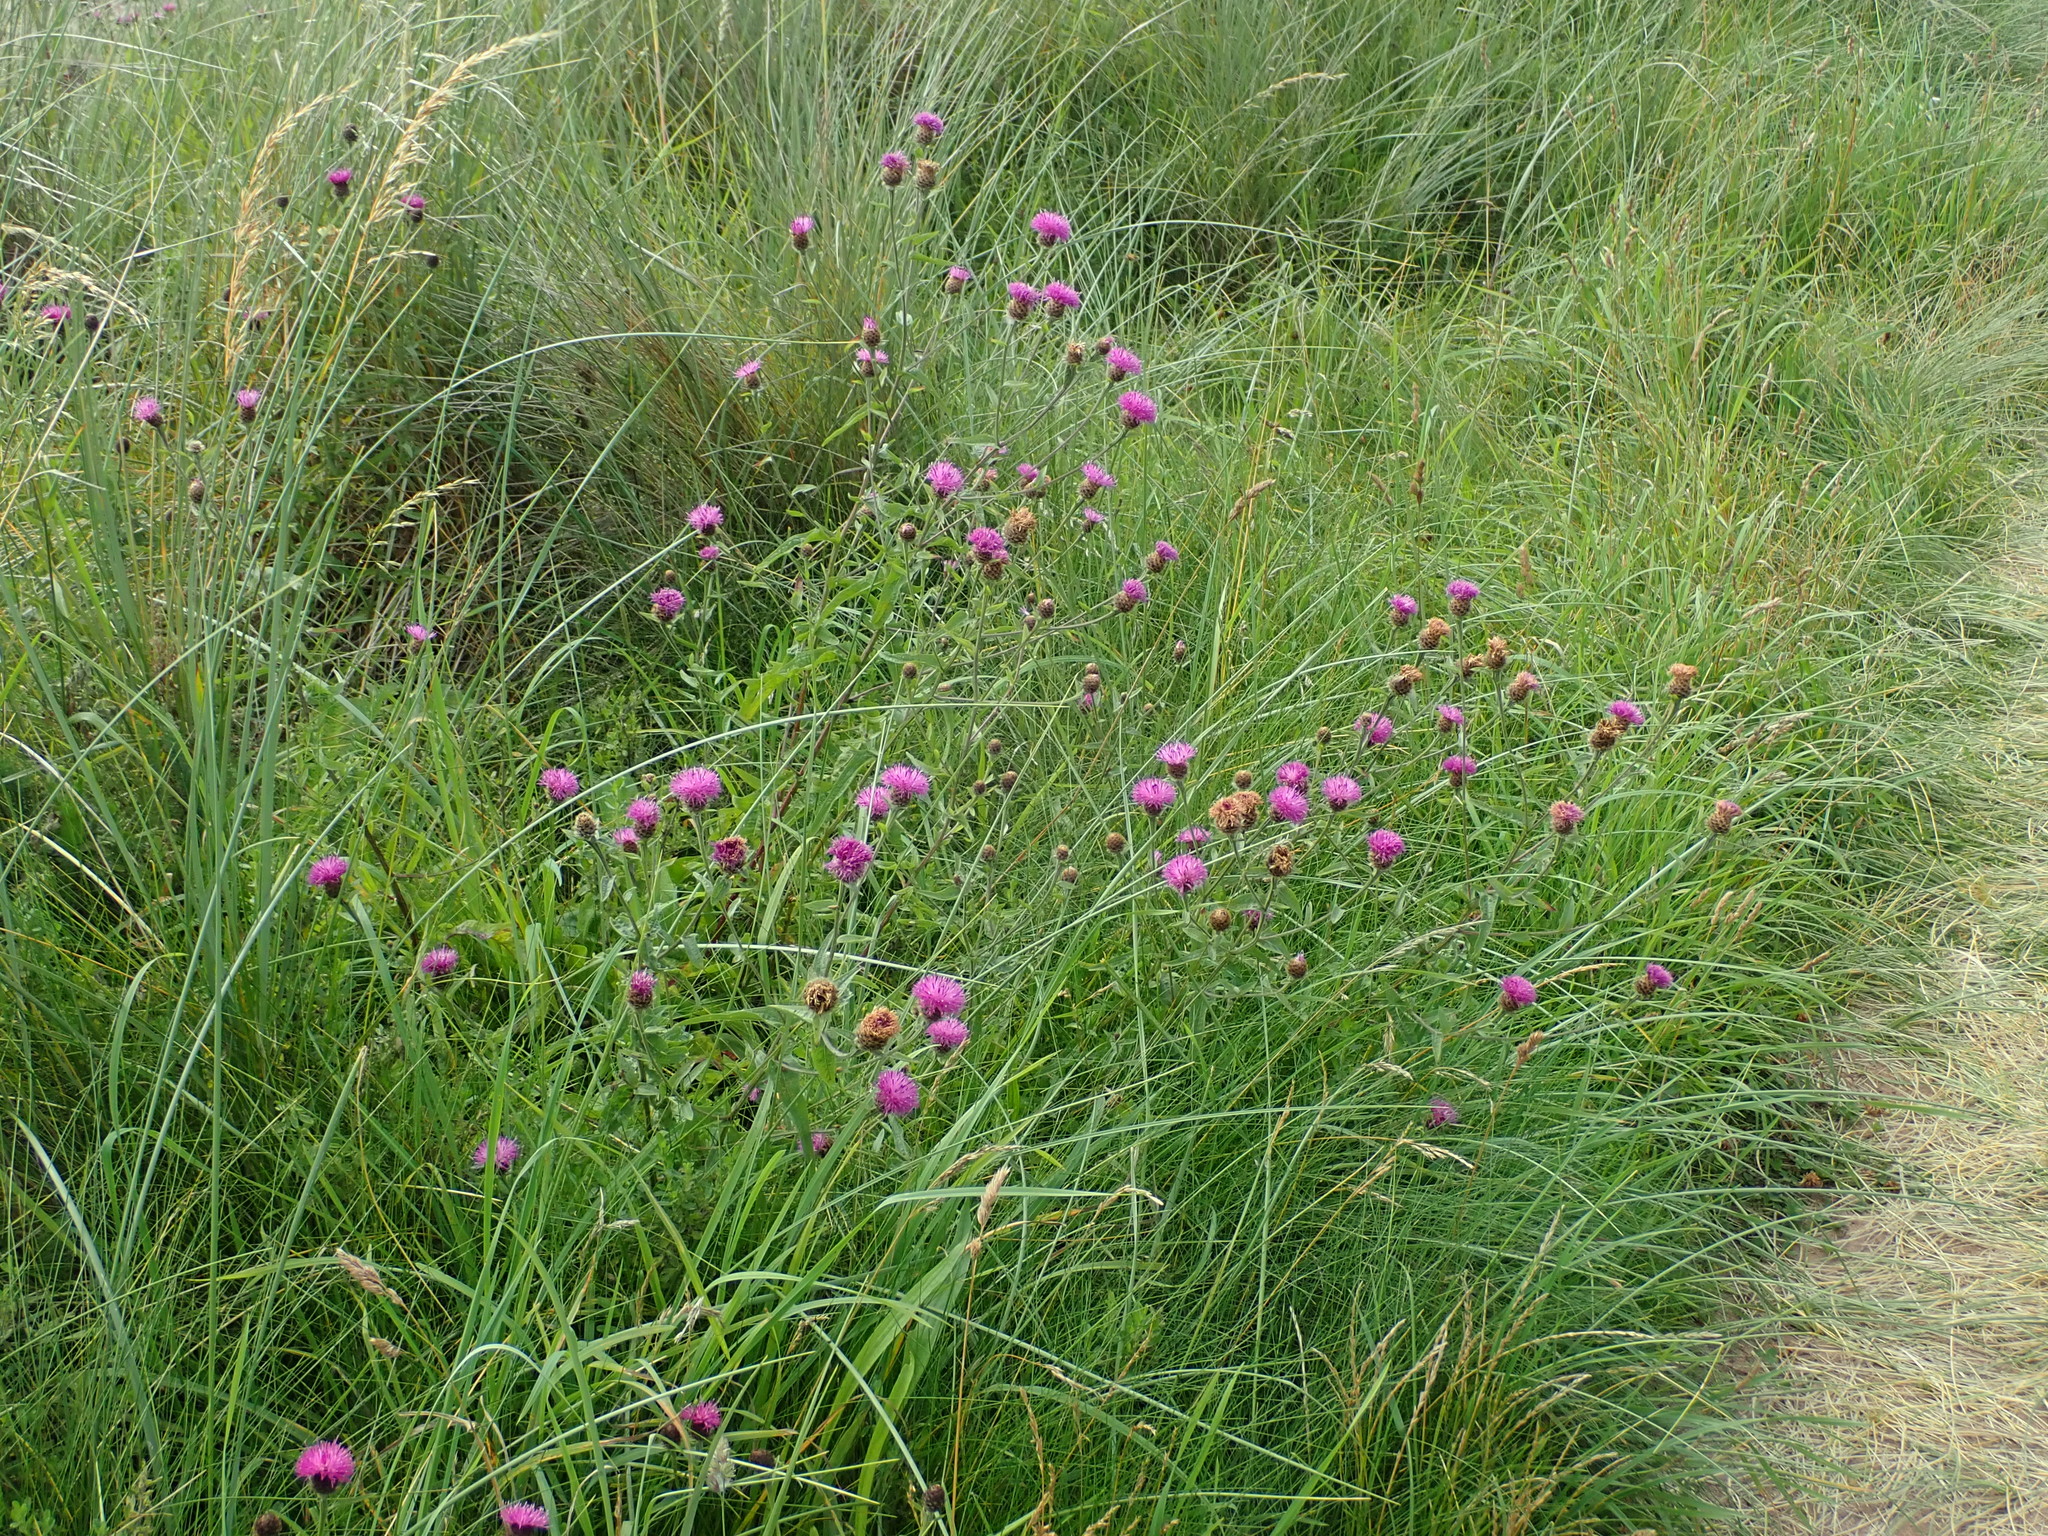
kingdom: Plantae
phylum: Tracheophyta
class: Magnoliopsida
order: Asterales
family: Asteraceae
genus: Centaurea
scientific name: Centaurea nigra
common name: Lesser knapweed
